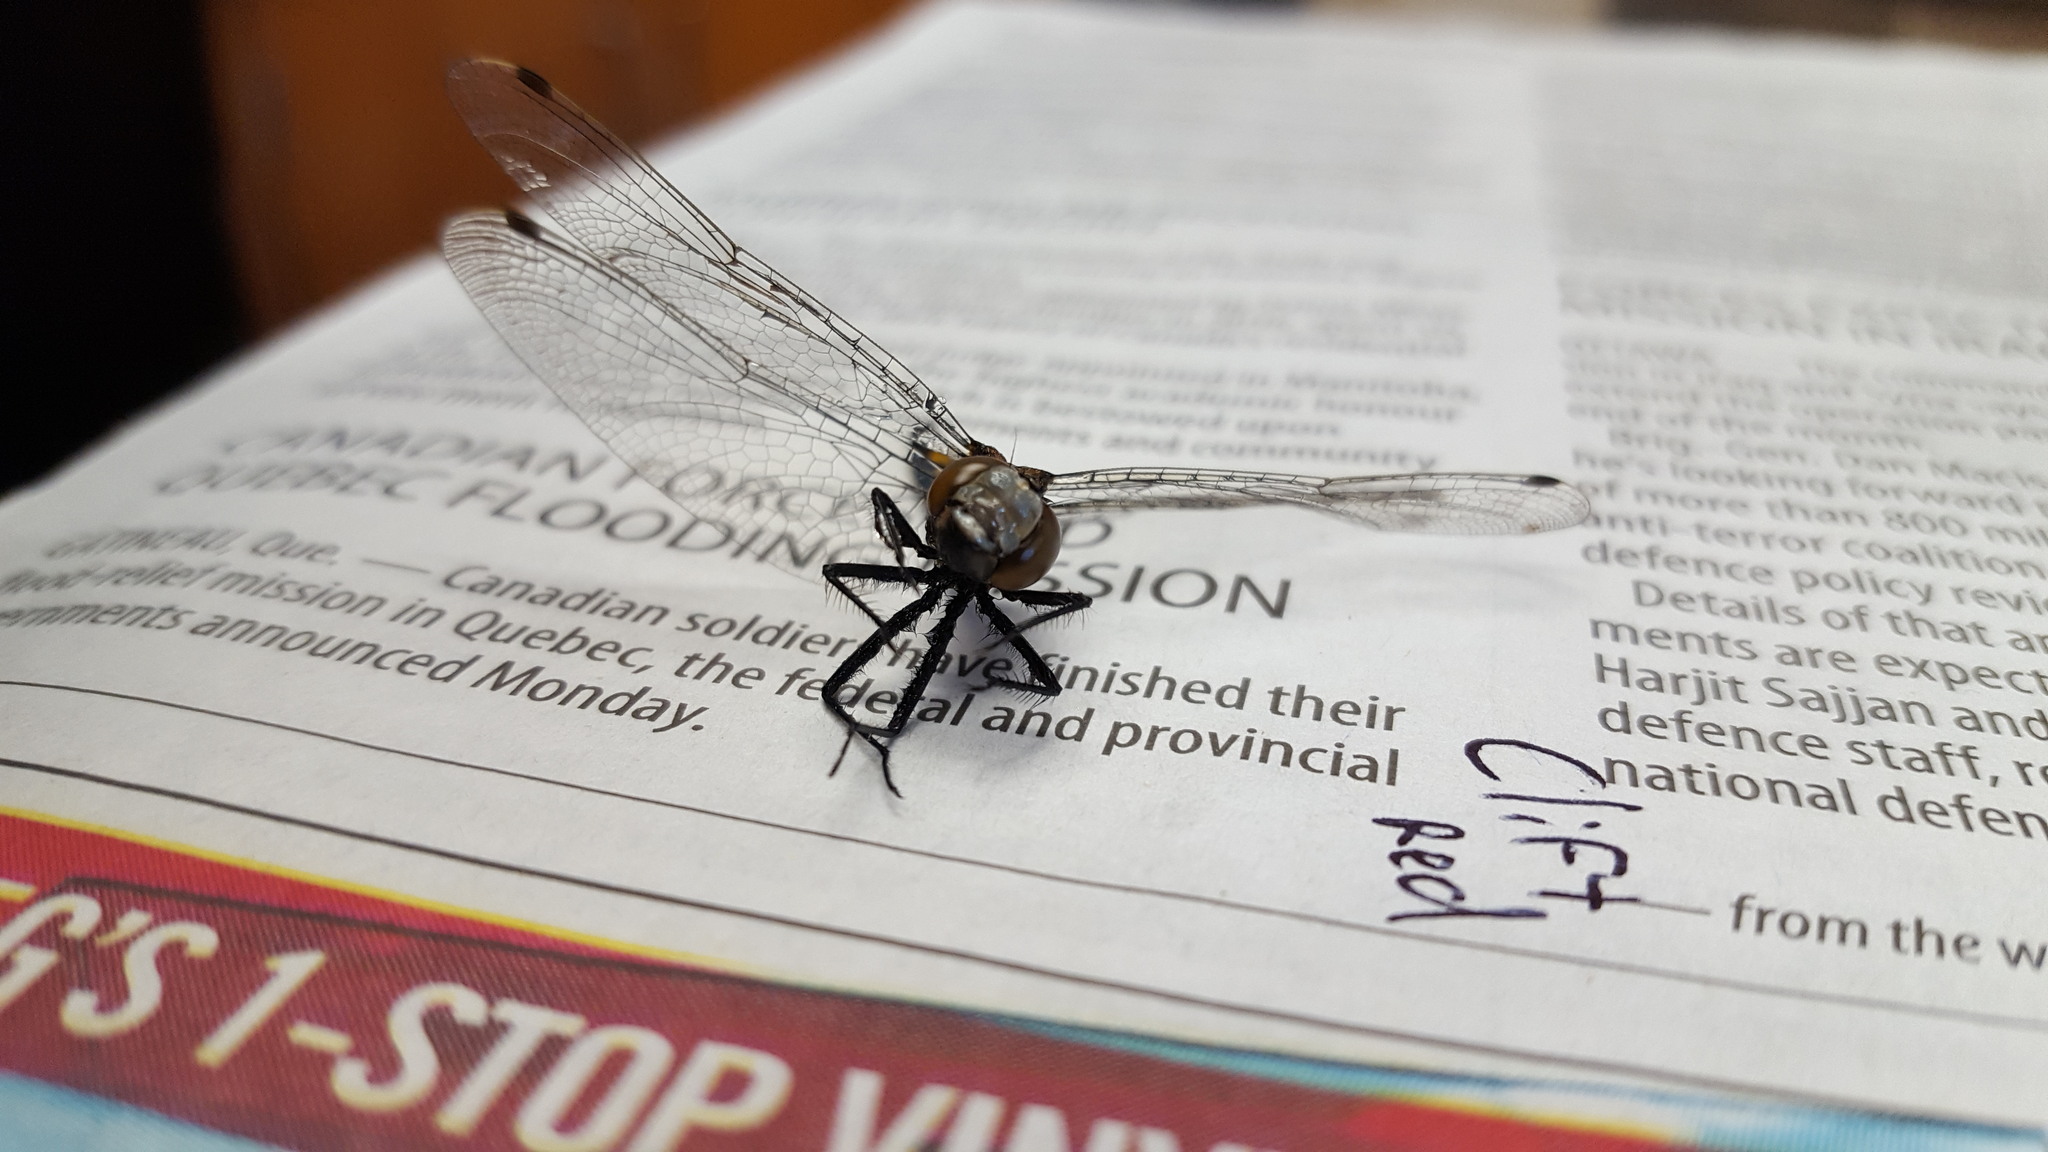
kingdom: Animalia
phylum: Arthropoda
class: Insecta
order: Odonata
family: Libellulidae
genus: Leucorrhinia
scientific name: Leucorrhinia intacta
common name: Dot-tailed whiteface
